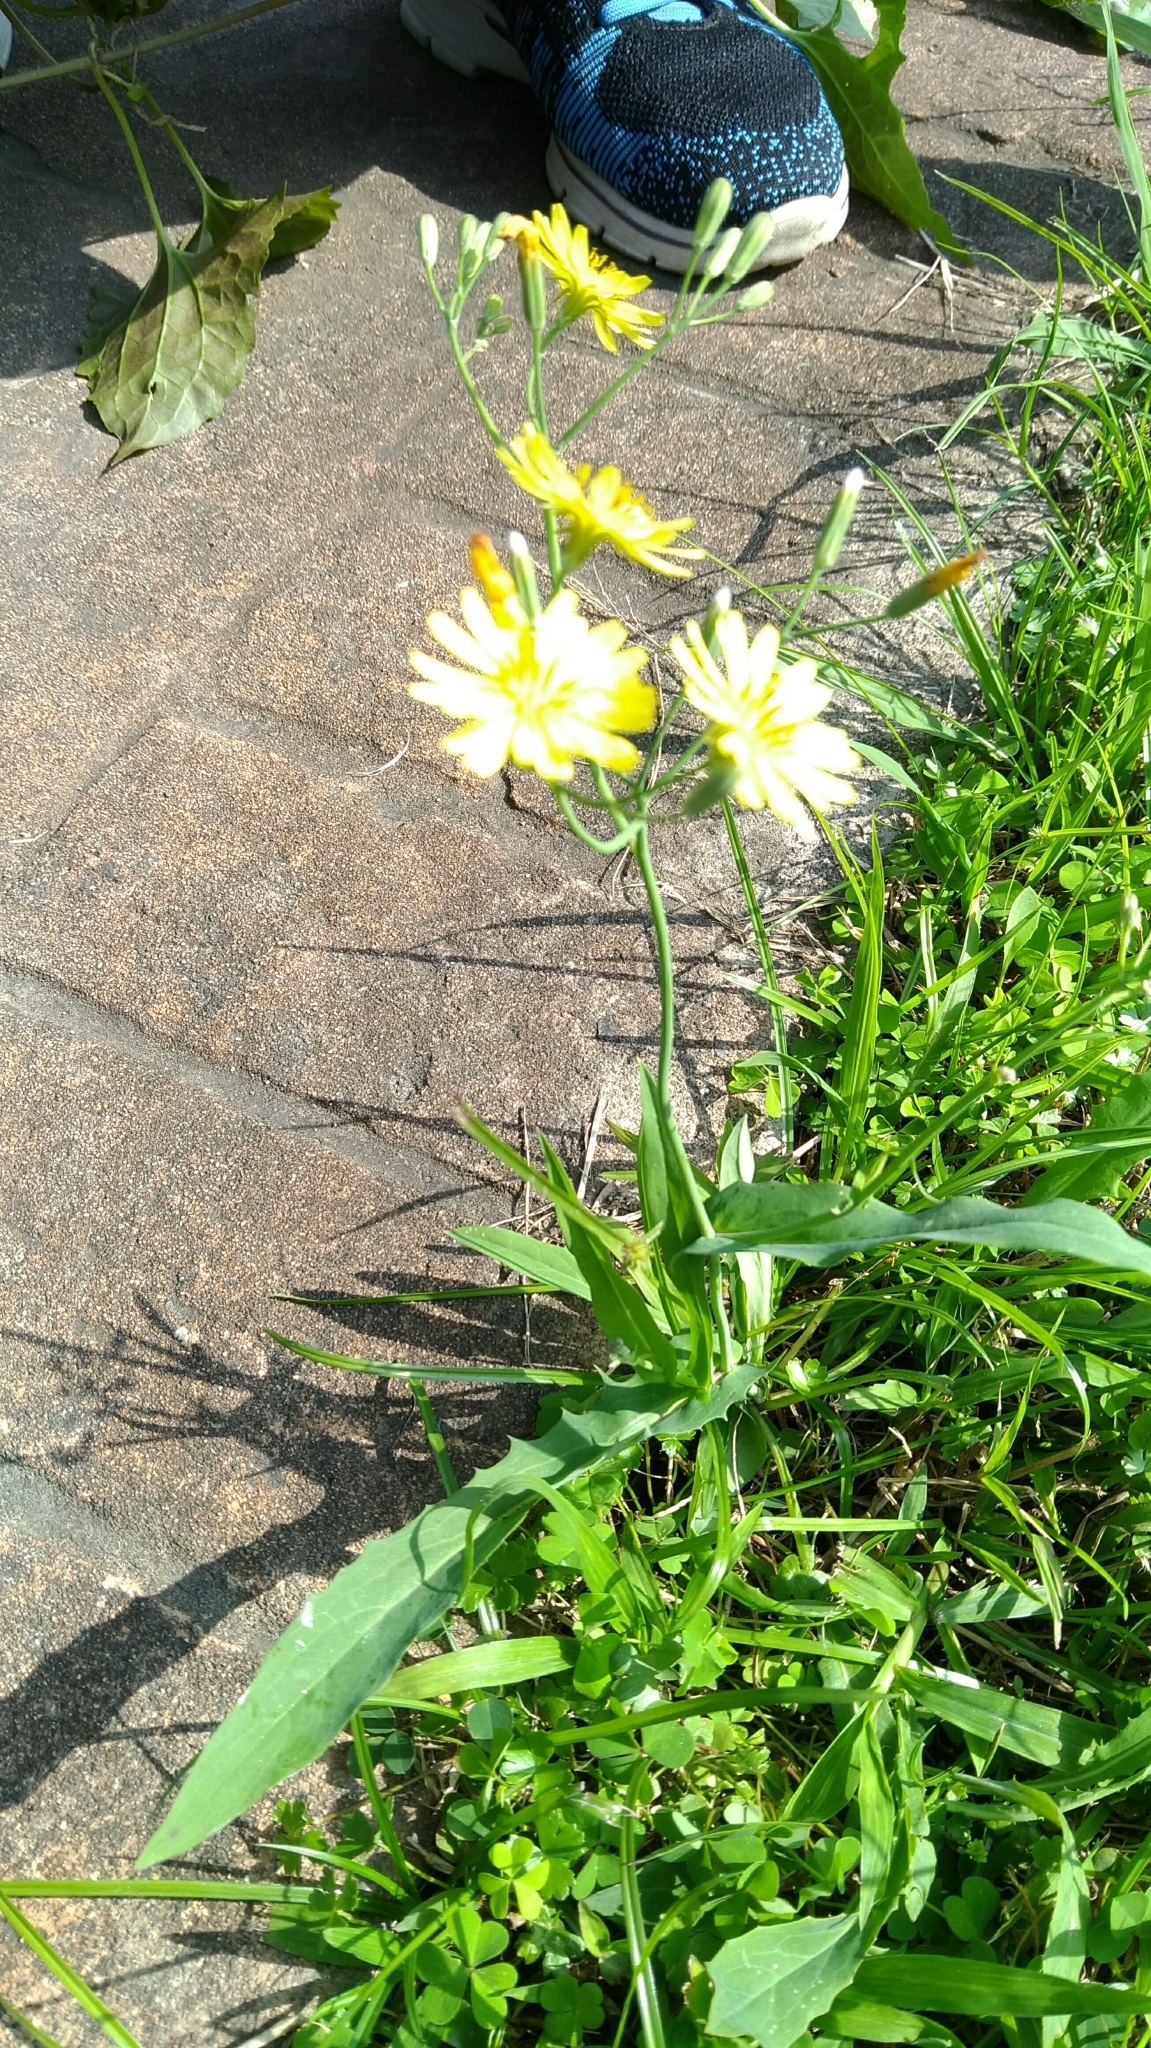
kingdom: Plantae
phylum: Tracheophyta
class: Magnoliopsida
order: Asterales
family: Asteraceae
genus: Ixeris
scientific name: Ixeris chinensis
